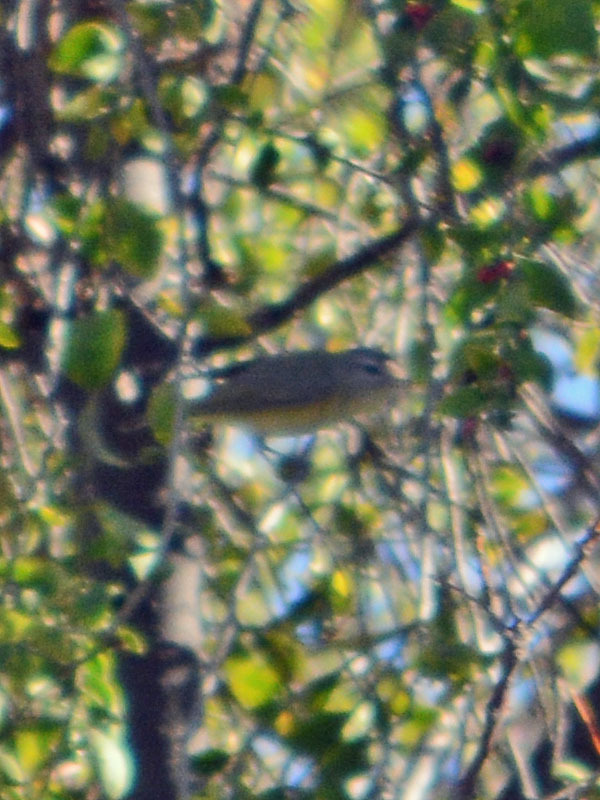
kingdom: Animalia
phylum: Chordata
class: Aves
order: Passeriformes
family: Vireonidae
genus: Vireo
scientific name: Vireo gilvus
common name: Warbling vireo
